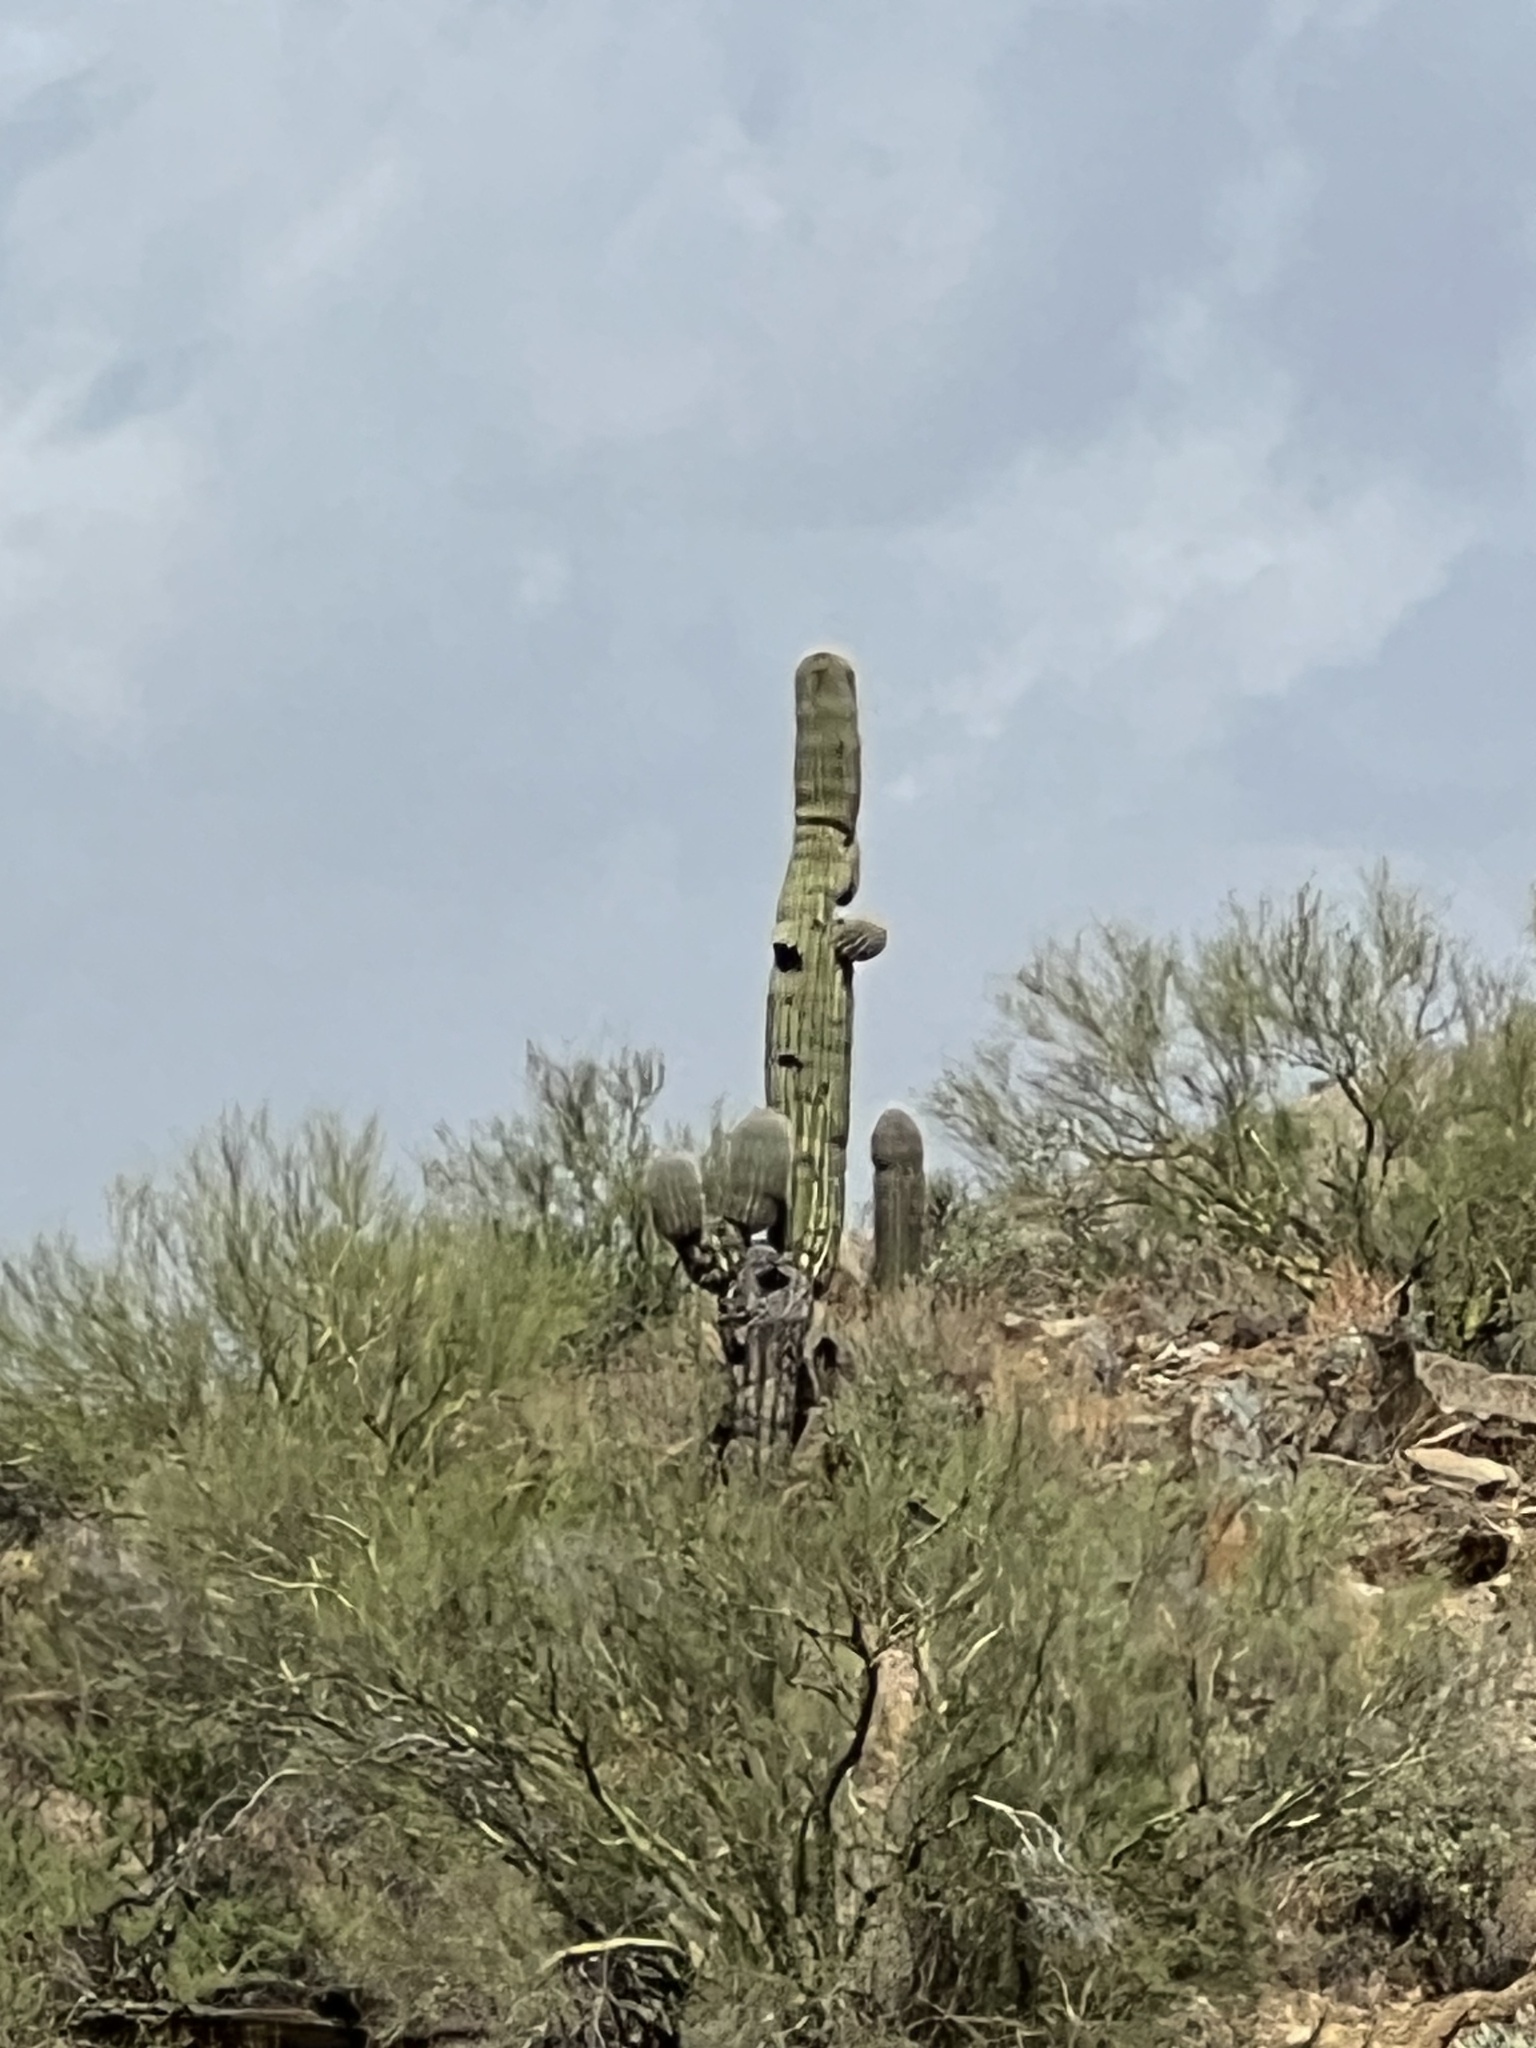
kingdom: Plantae
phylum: Tracheophyta
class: Magnoliopsida
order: Caryophyllales
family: Cactaceae
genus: Carnegiea
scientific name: Carnegiea gigantea
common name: Saguaro
